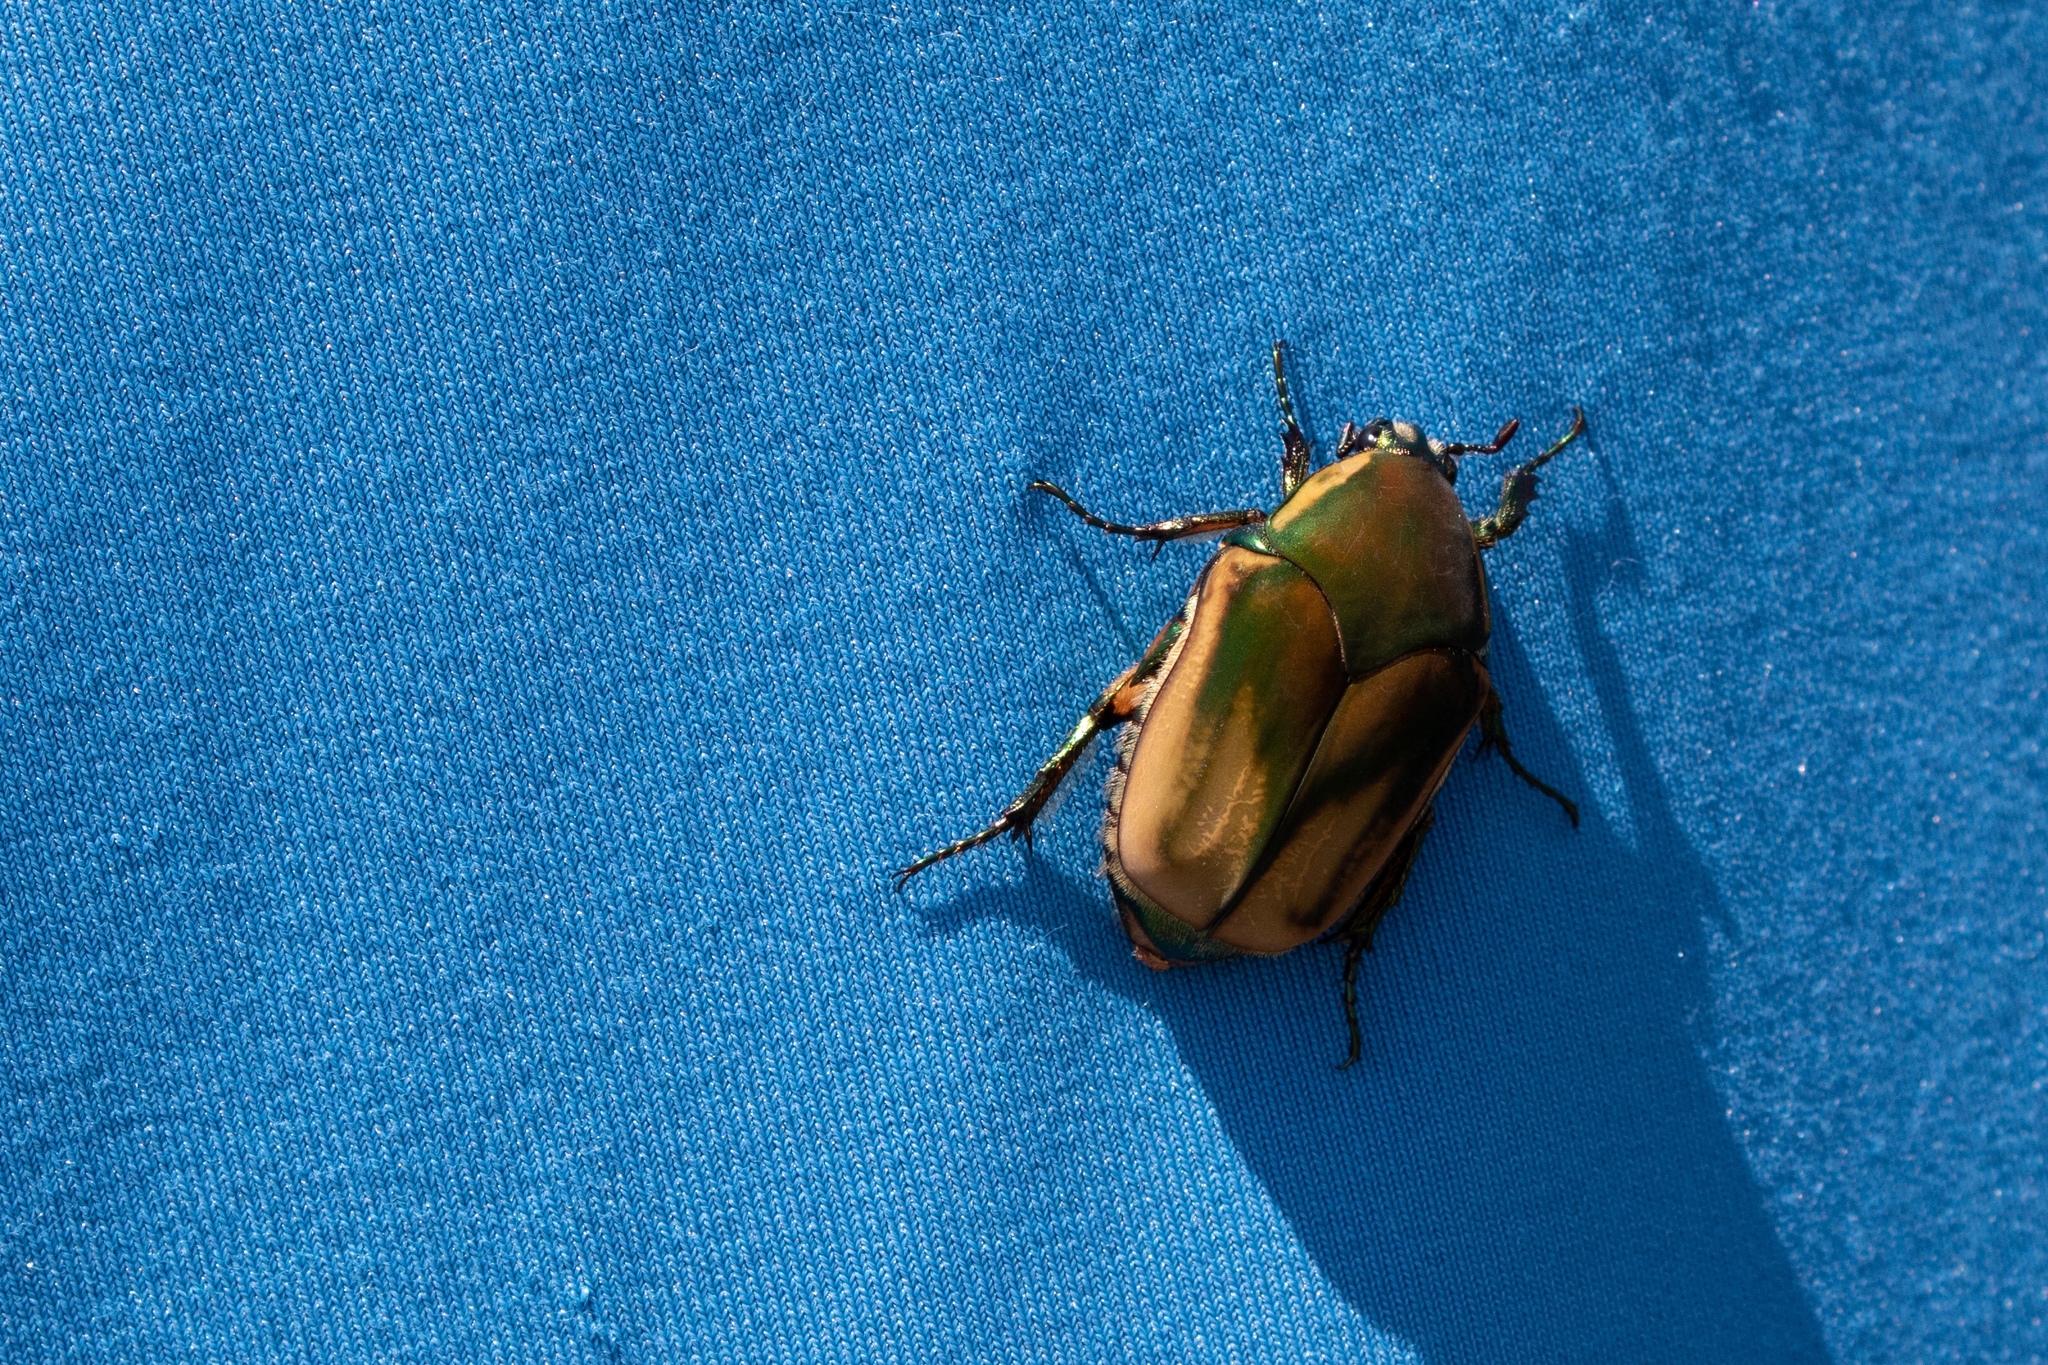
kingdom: Animalia
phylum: Arthropoda
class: Insecta
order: Coleoptera
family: Scarabaeidae
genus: Cotinis
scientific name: Cotinis nitida
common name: Common green june beetle
